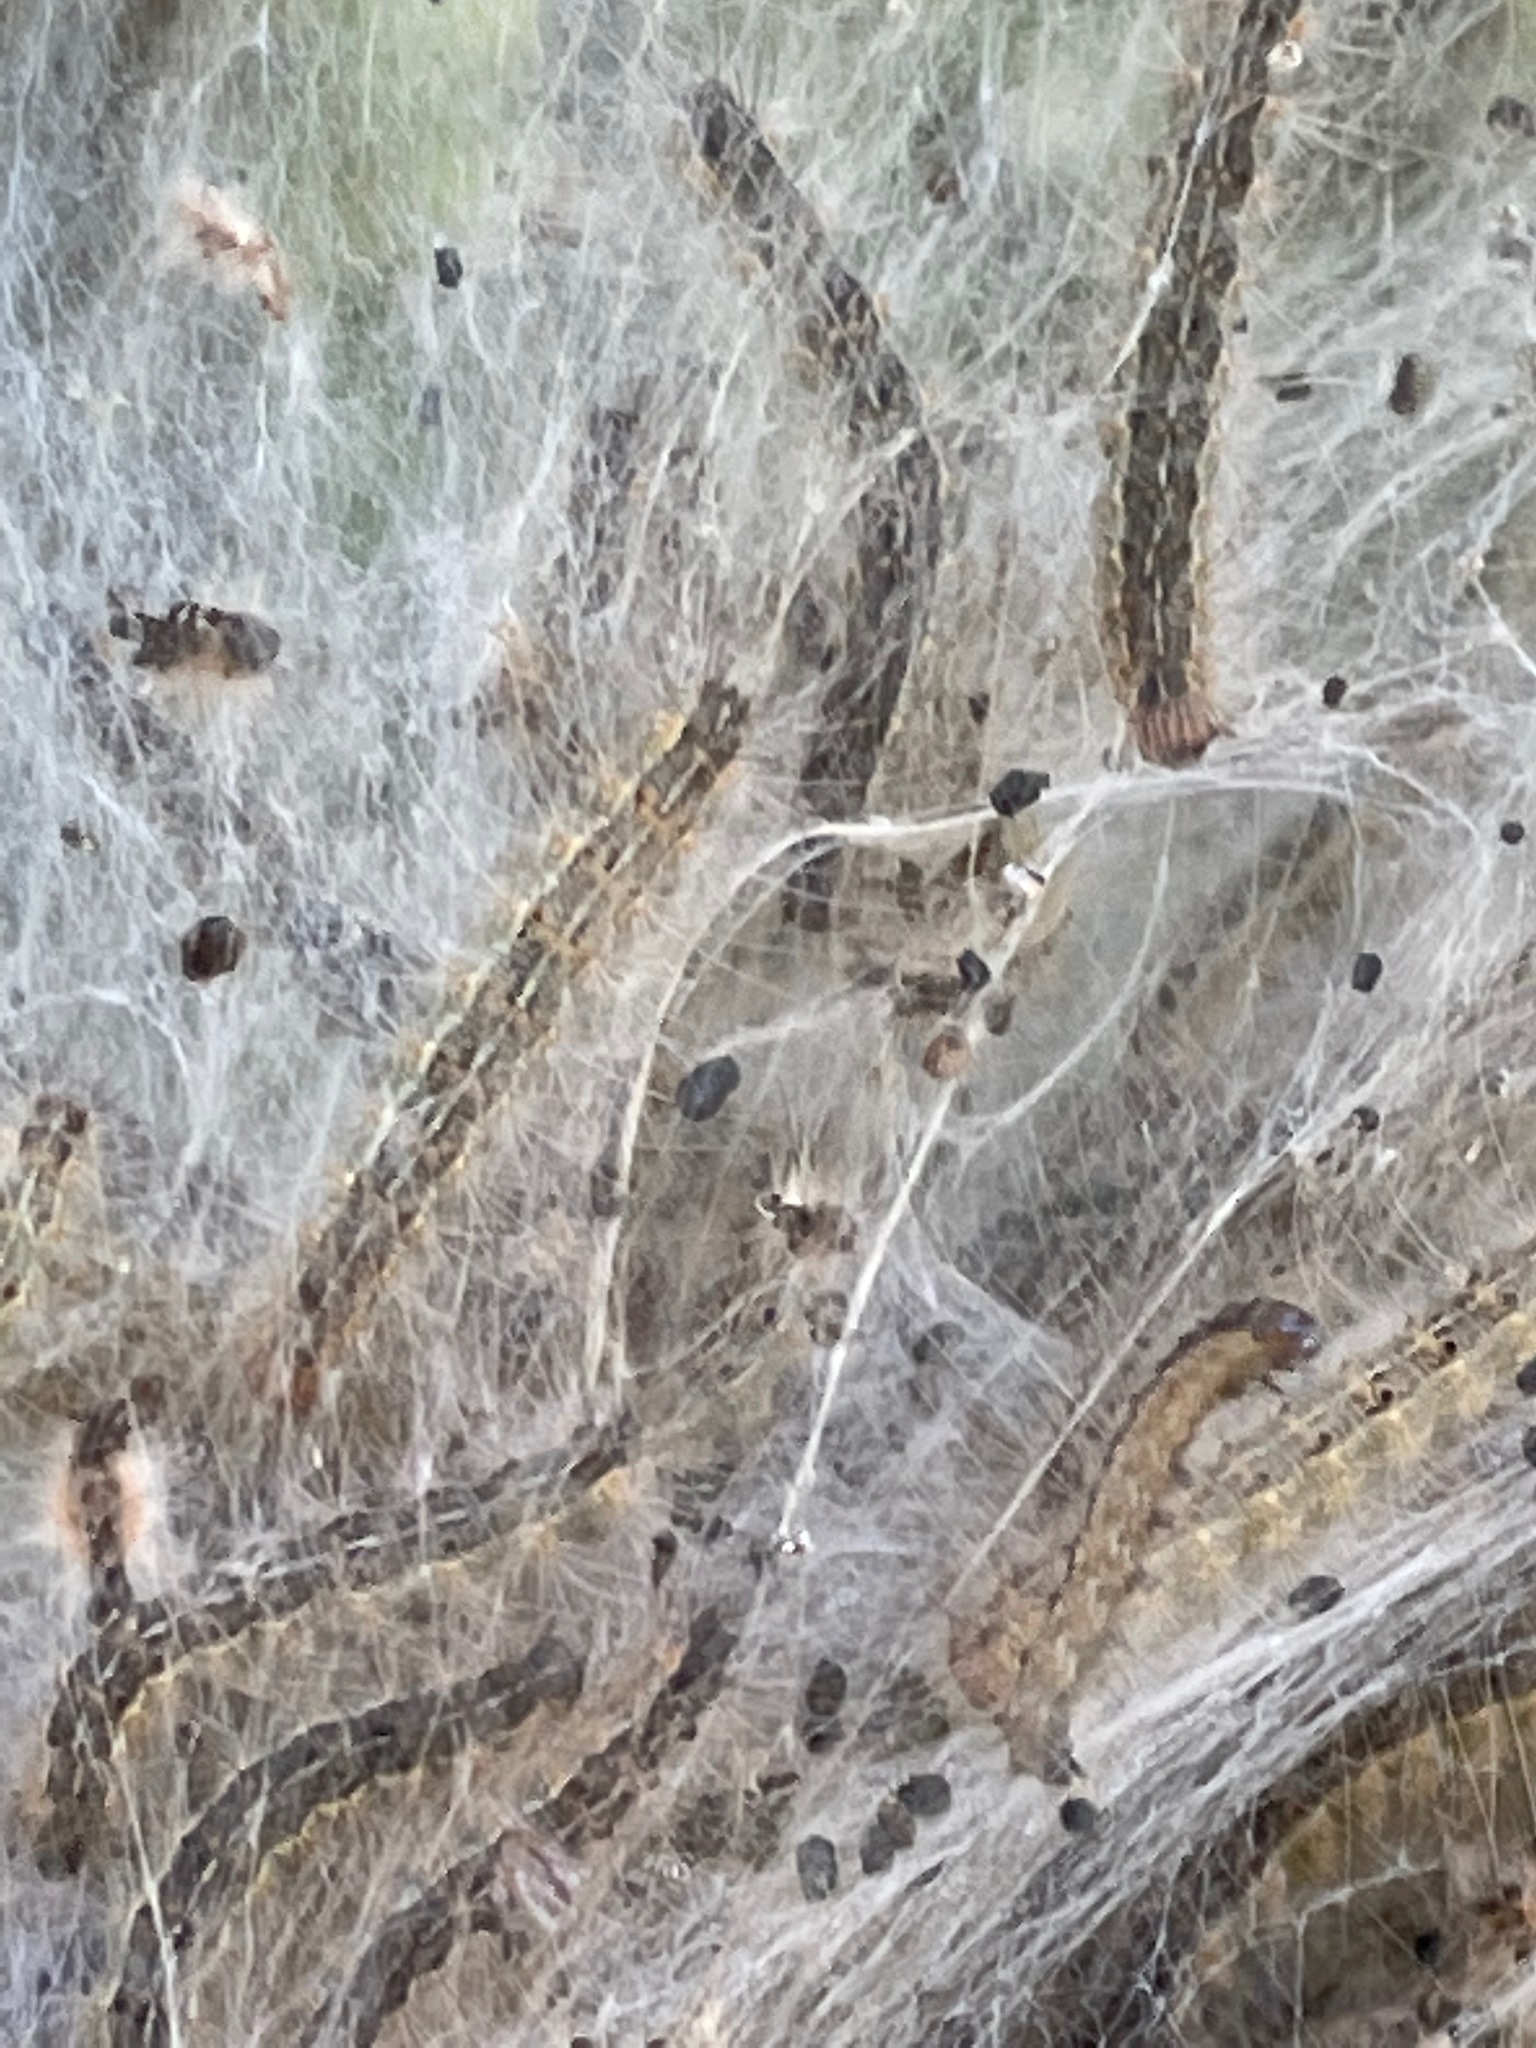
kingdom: Animalia
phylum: Arthropoda
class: Insecta
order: Lepidoptera
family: Erebidae
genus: Hyphantria
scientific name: Hyphantria cunea
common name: American white moth
